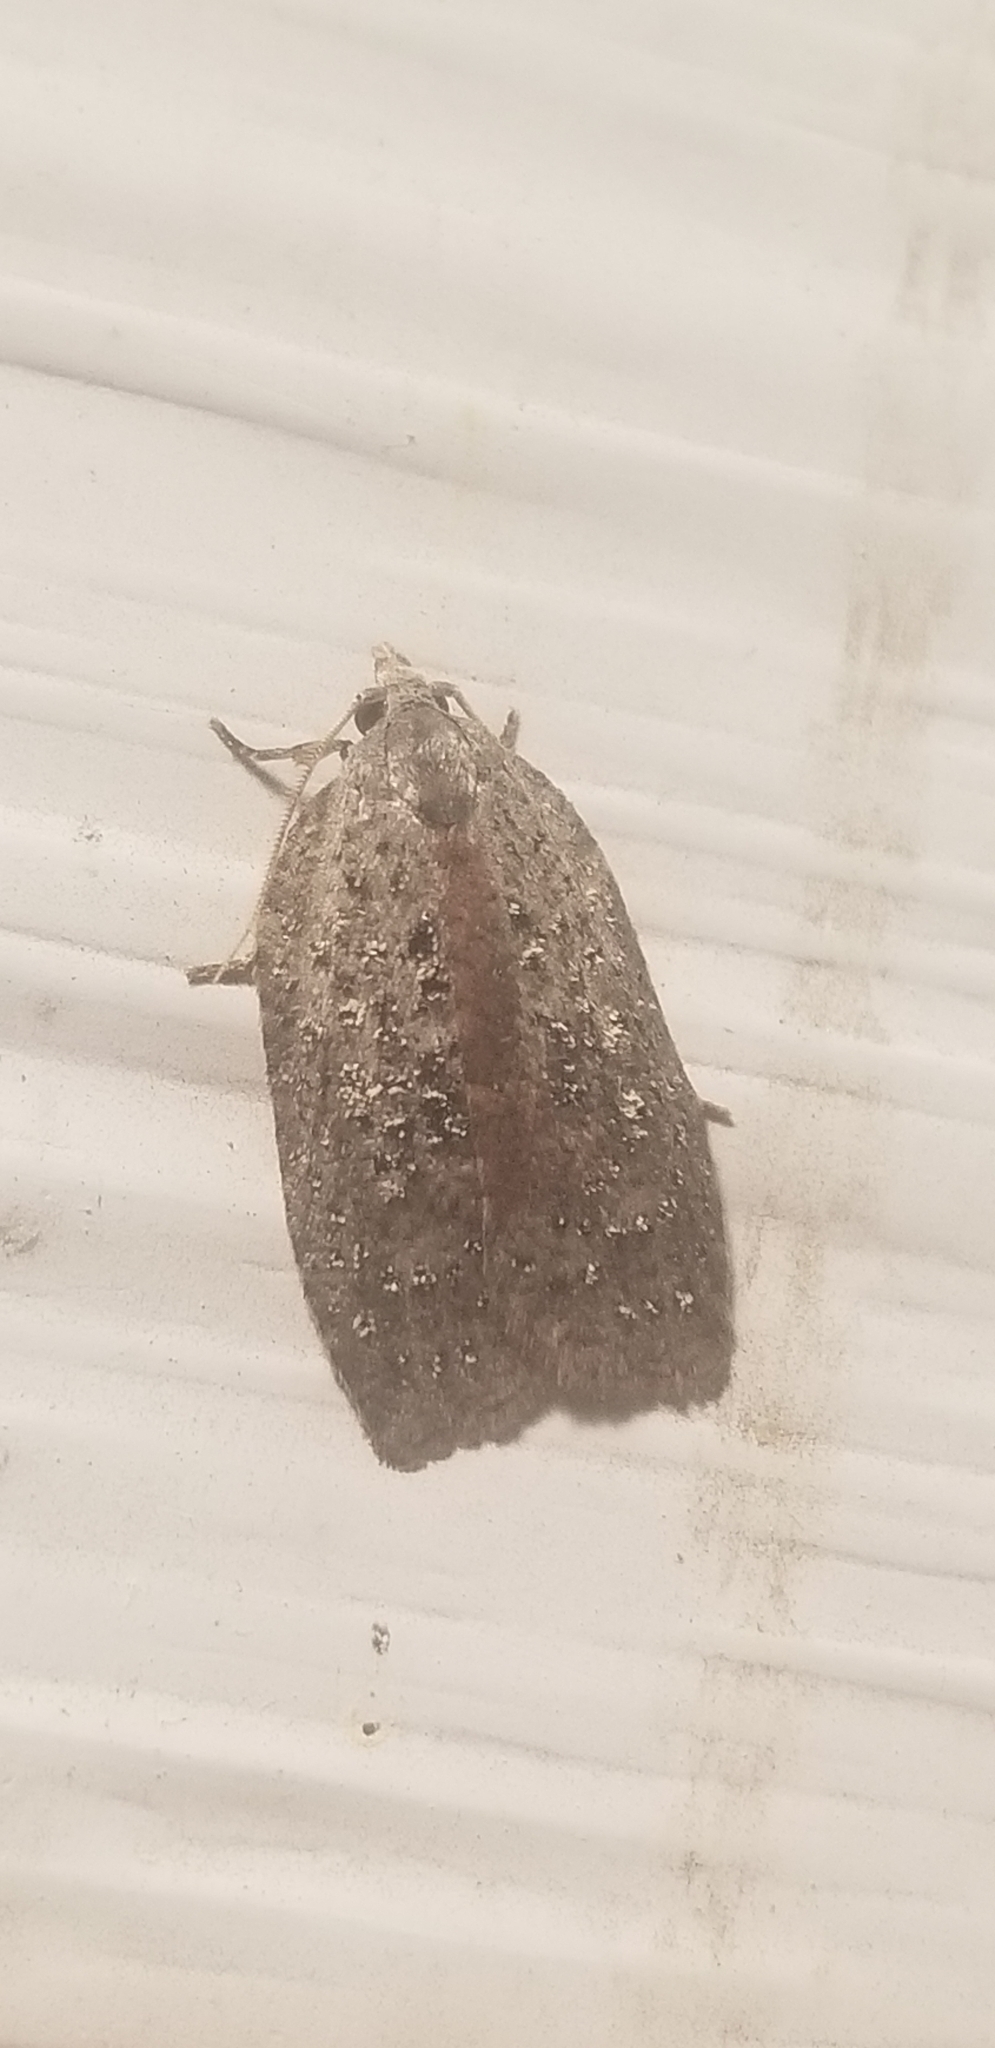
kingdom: Animalia
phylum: Arthropoda
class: Insecta
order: Lepidoptera
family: Tortricidae
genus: Amorbia
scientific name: Amorbia humerosana
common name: White-lined leafroller moth
